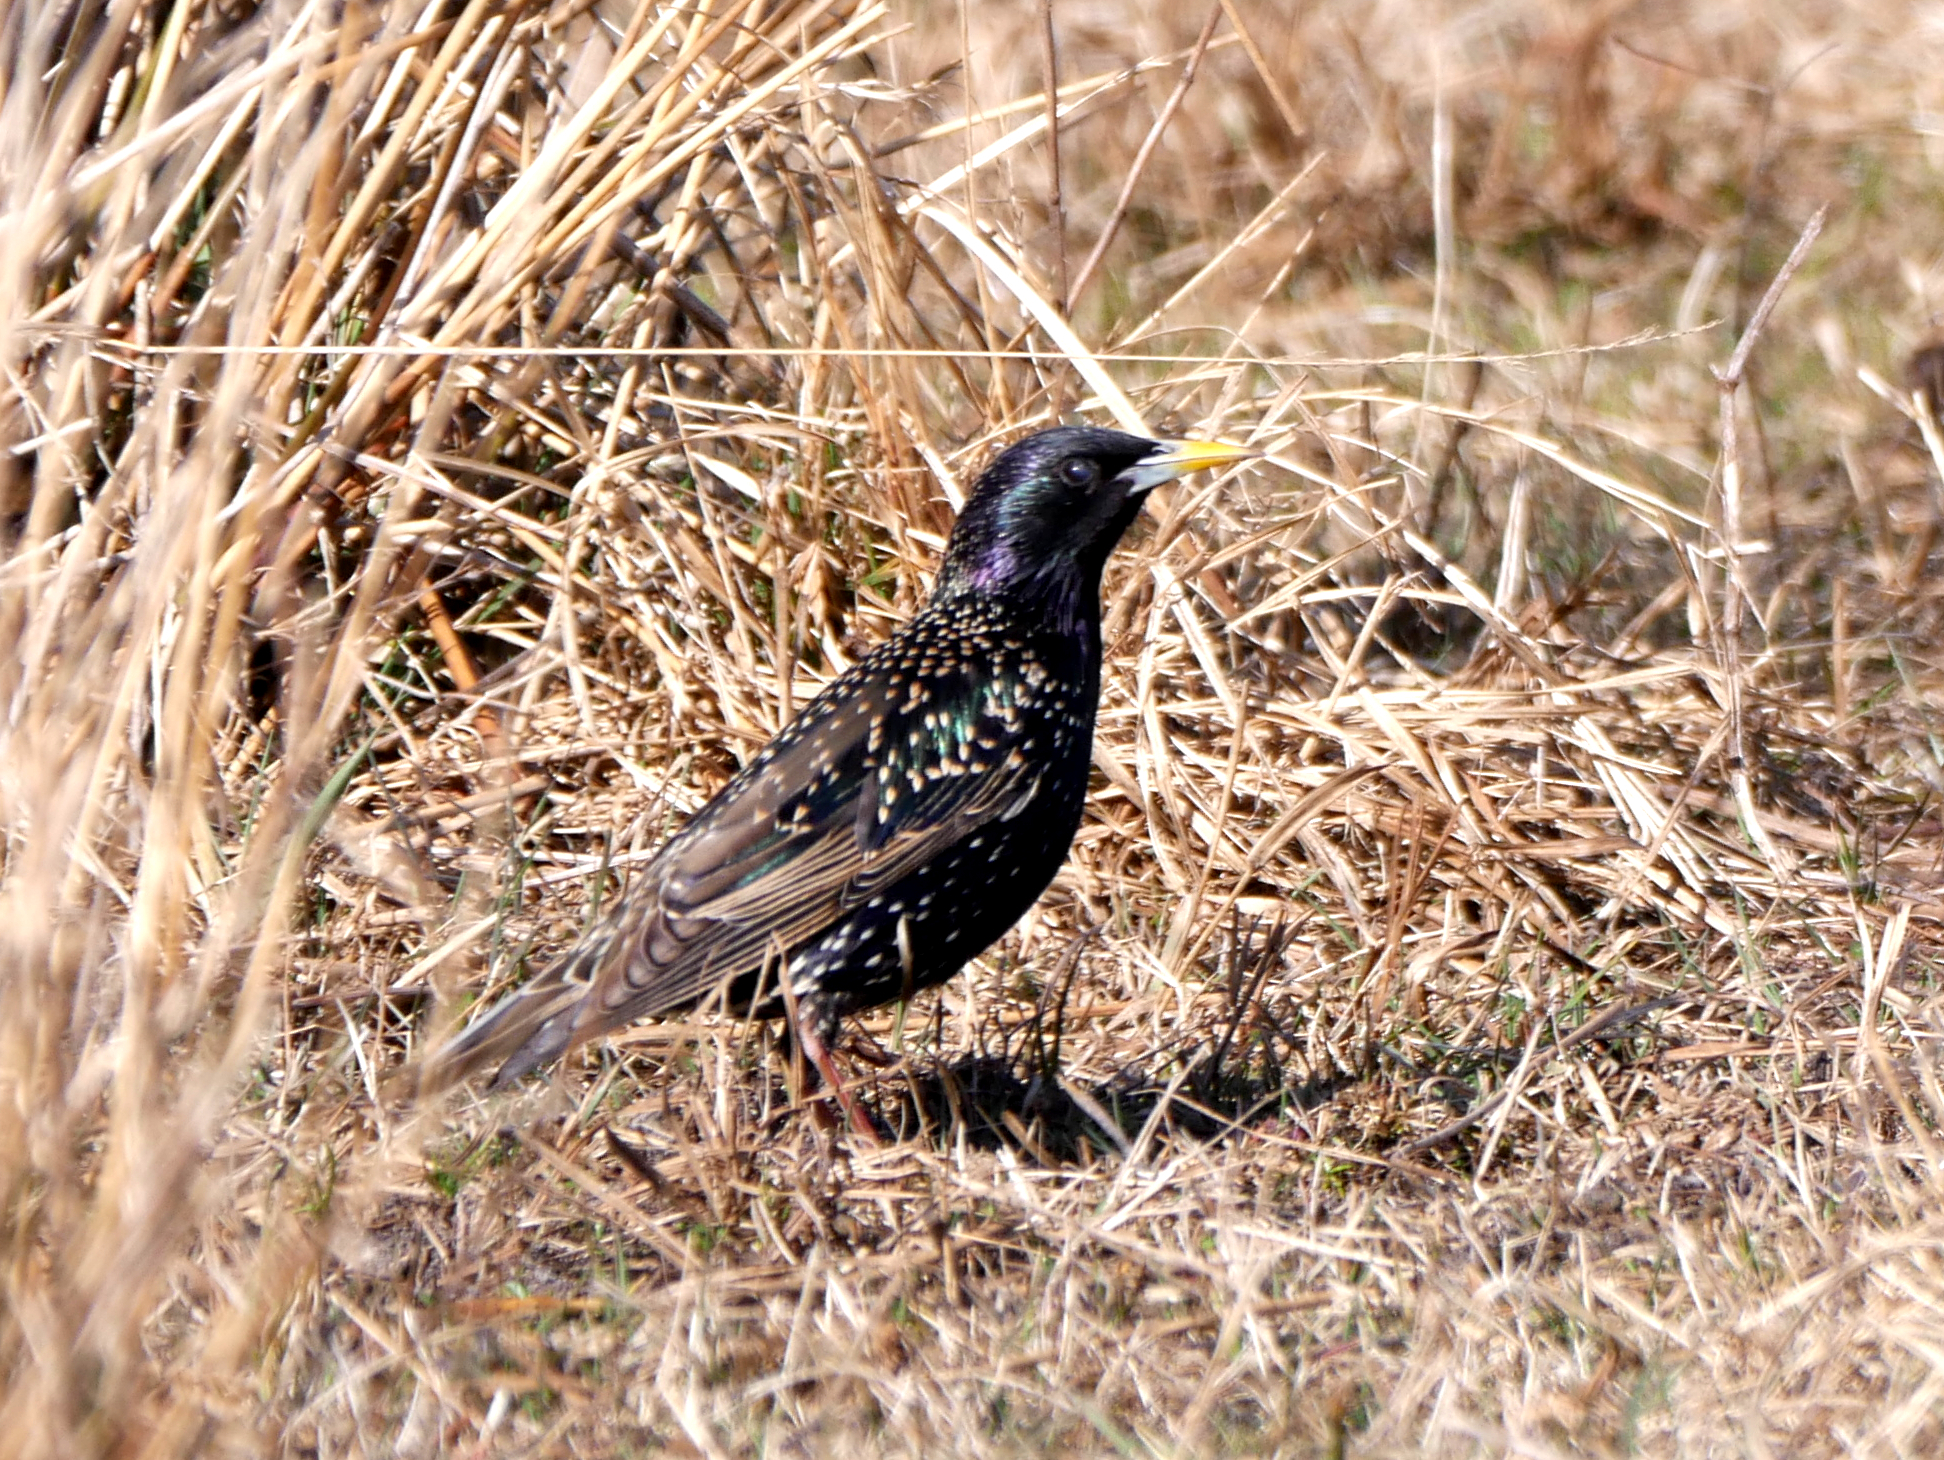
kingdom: Animalia
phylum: Chordata
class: Aves
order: Passeriformes
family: Sturnidae
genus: Sturnus
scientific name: Sturnus vulgaris
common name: Common starling
